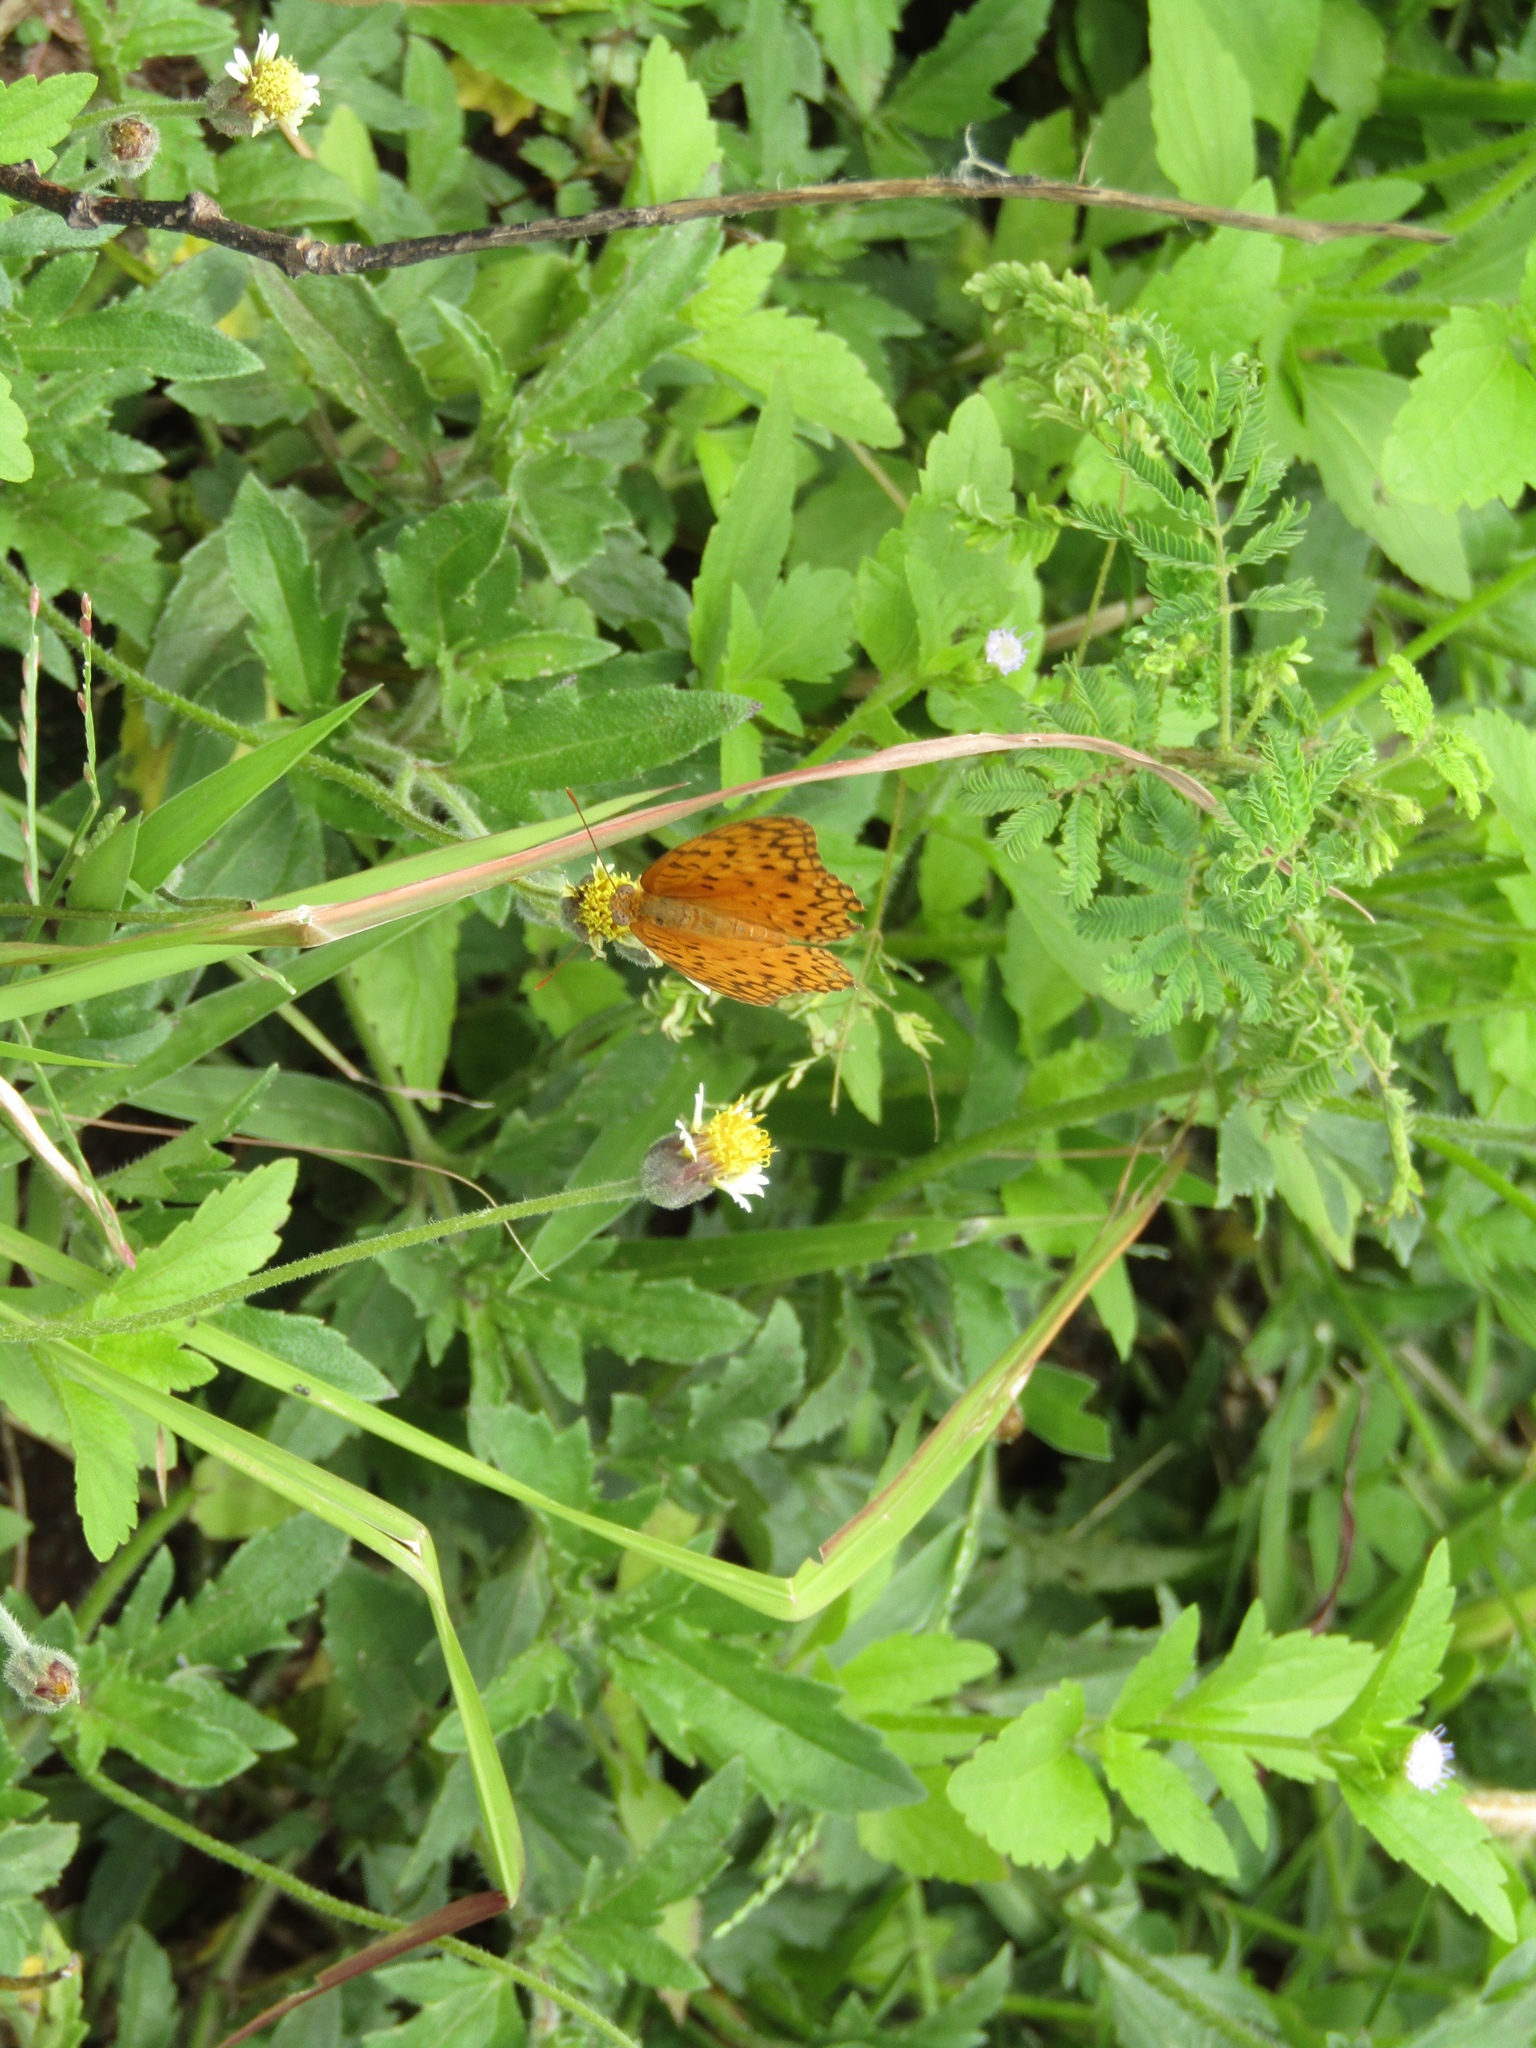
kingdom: Animalia
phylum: Arthropoda
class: Insecta
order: Lepidoptera
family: Nymphalidae
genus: Phalanta
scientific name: Phalanta phalantha
